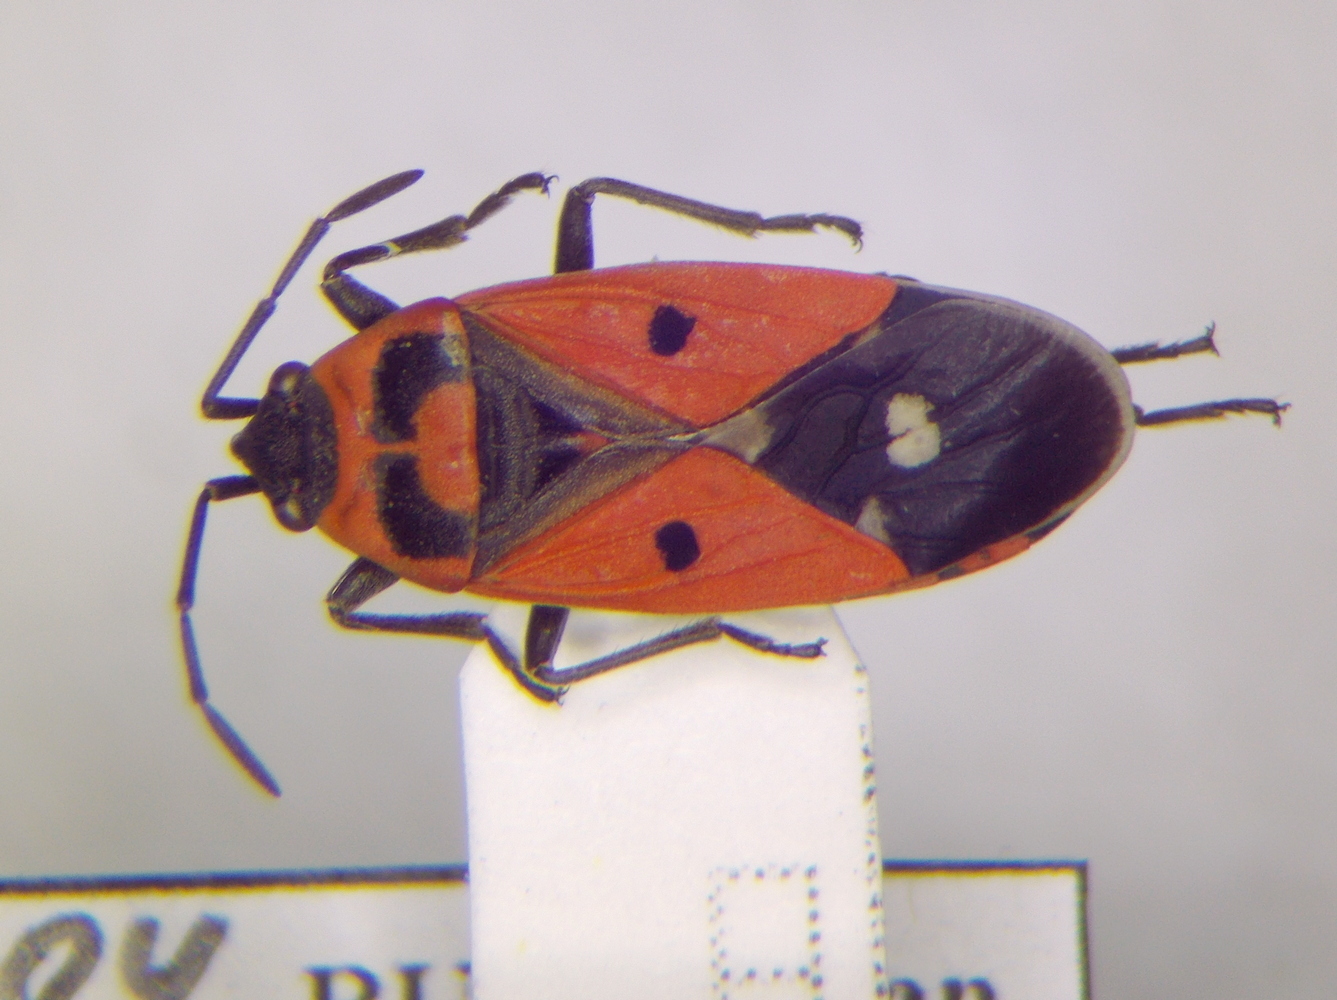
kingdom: Animalia
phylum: Arthropoda
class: Insecta
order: Hemiptera
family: Lygaeidae
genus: Melanocoryphus
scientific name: Melanocoryphus albomaculatus
